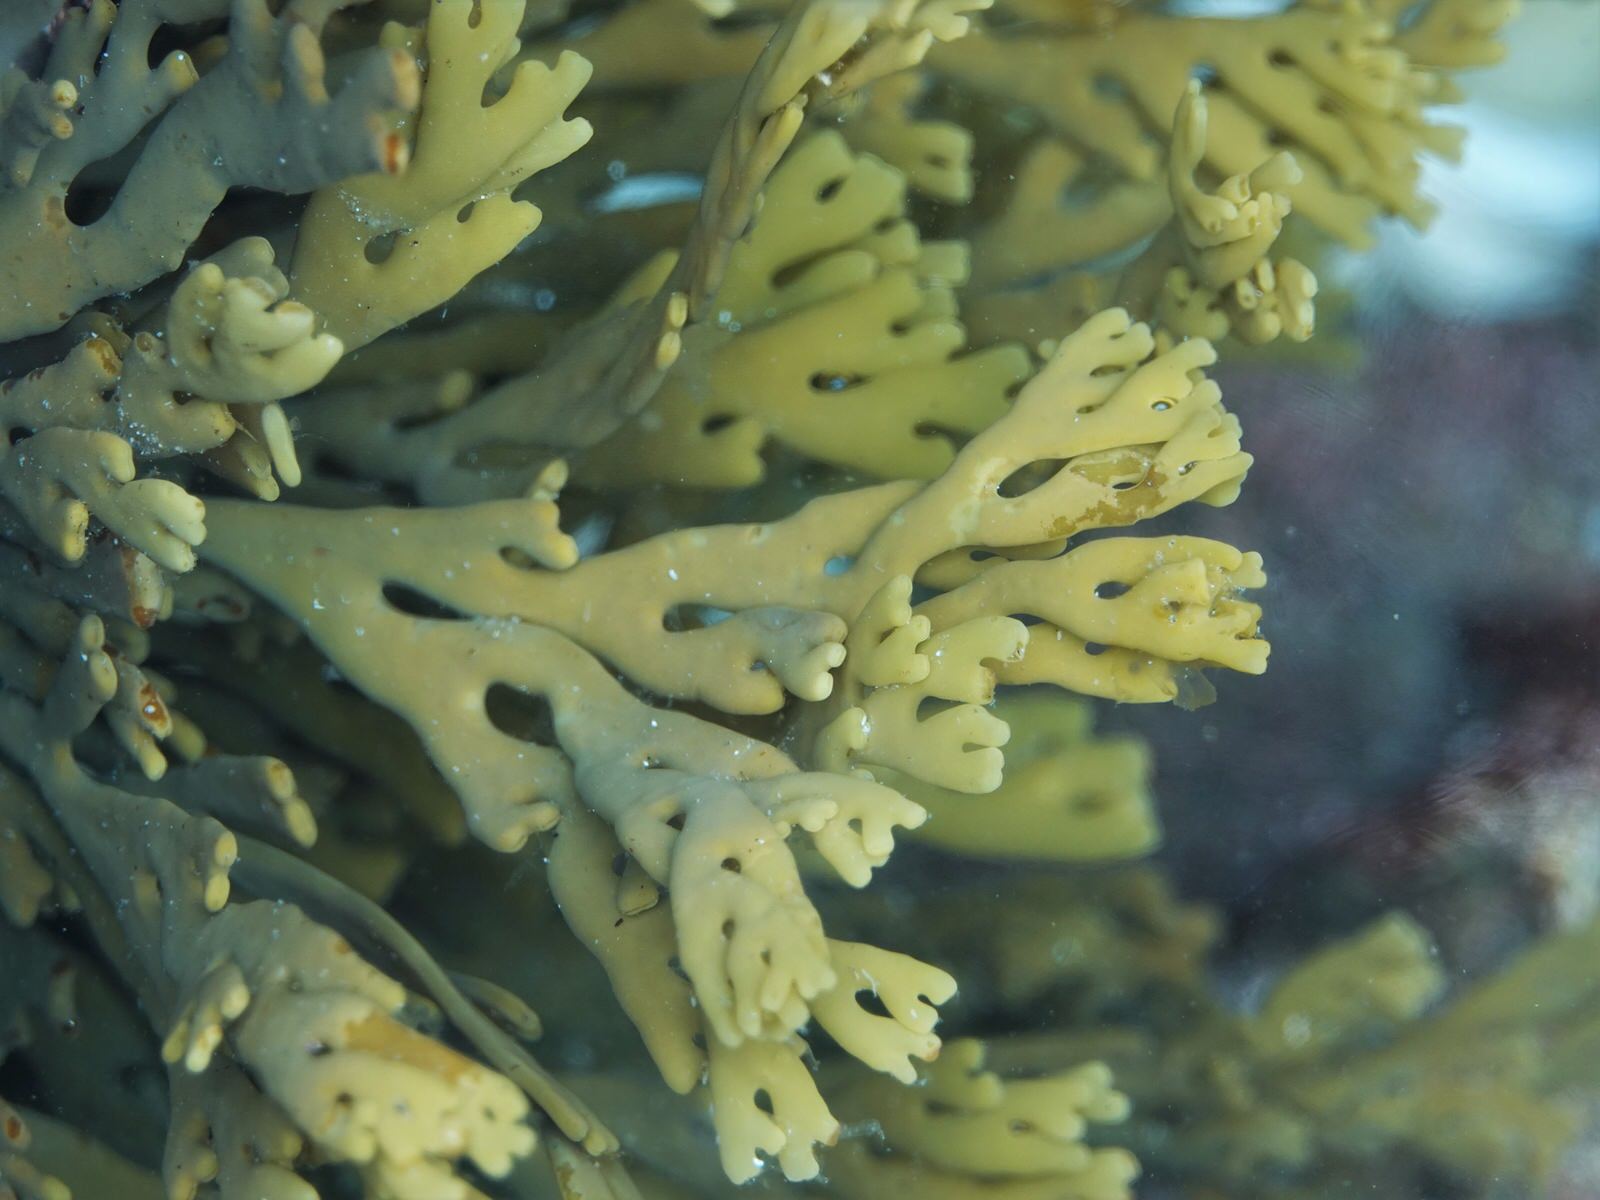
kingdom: Chromista
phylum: Ochrophyta
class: Phaeophyceae
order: Fucales
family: Xiphophoraceae
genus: Xiphophora
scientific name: Xiphophora chondrophylla
